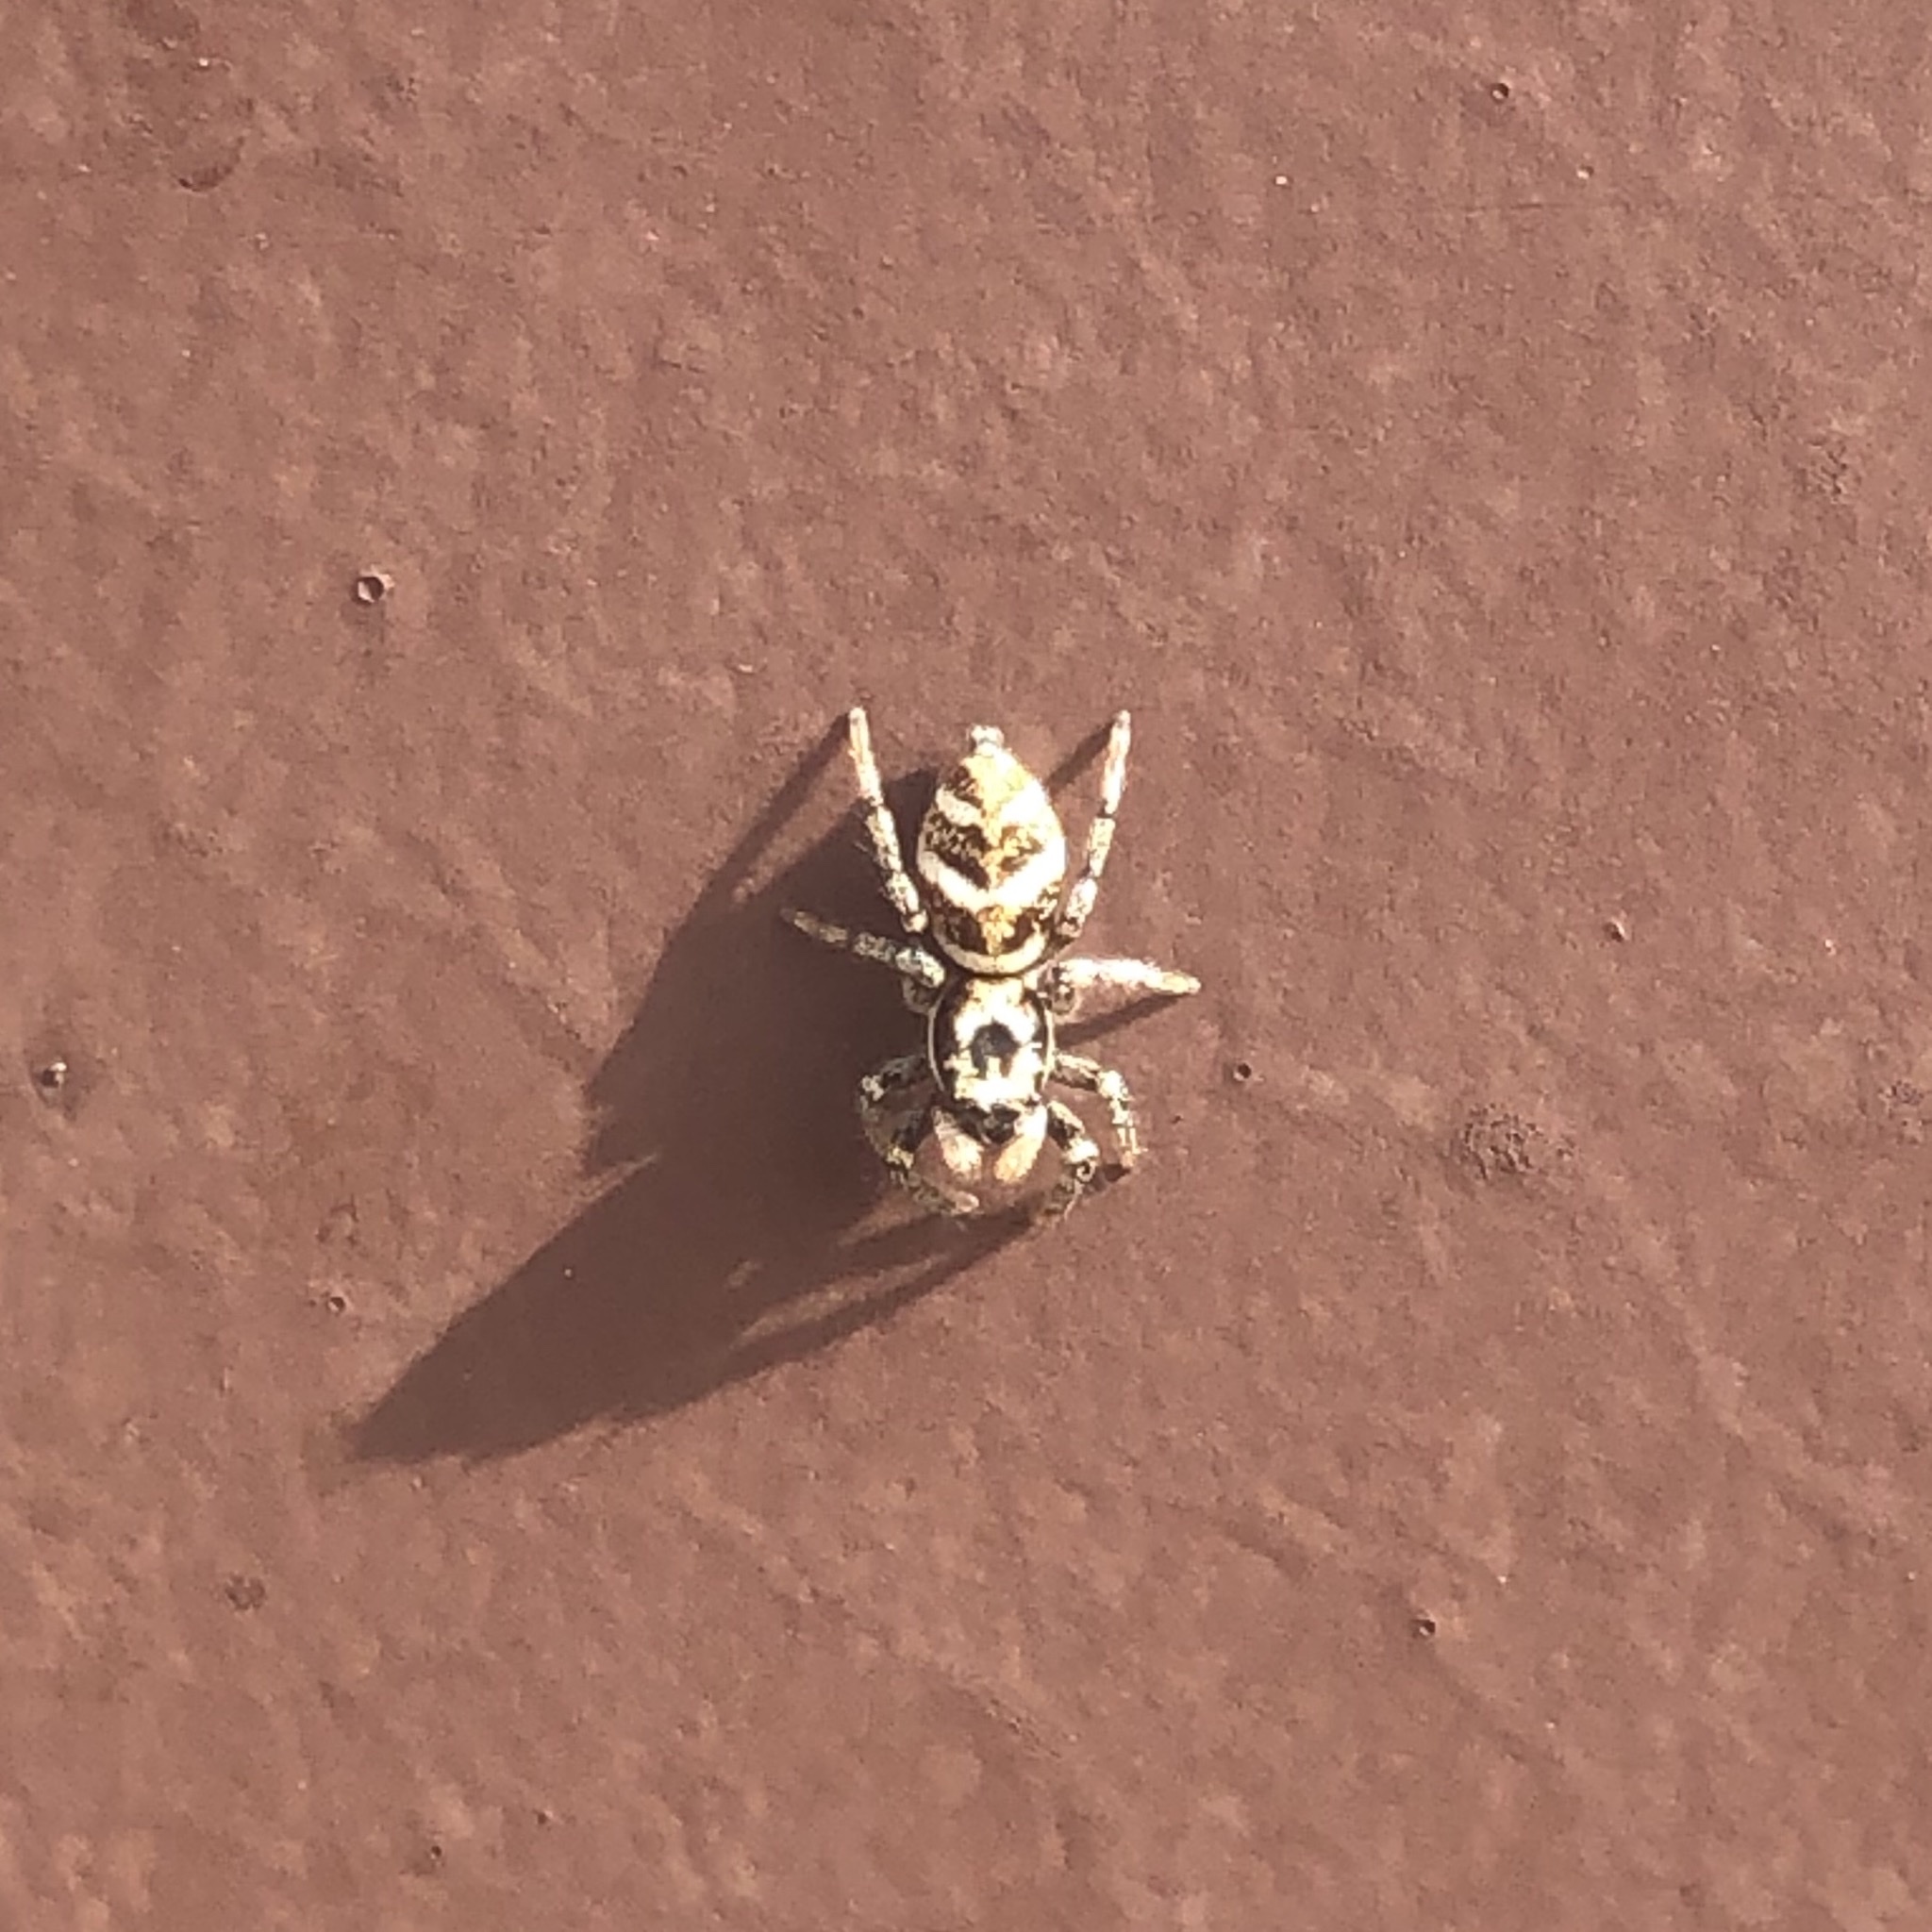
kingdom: Animalia
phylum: Arthropoda
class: Arachnida
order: Araneae
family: Salticidae
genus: Salticus
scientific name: Salticus scenicus
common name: Zebra jumper
